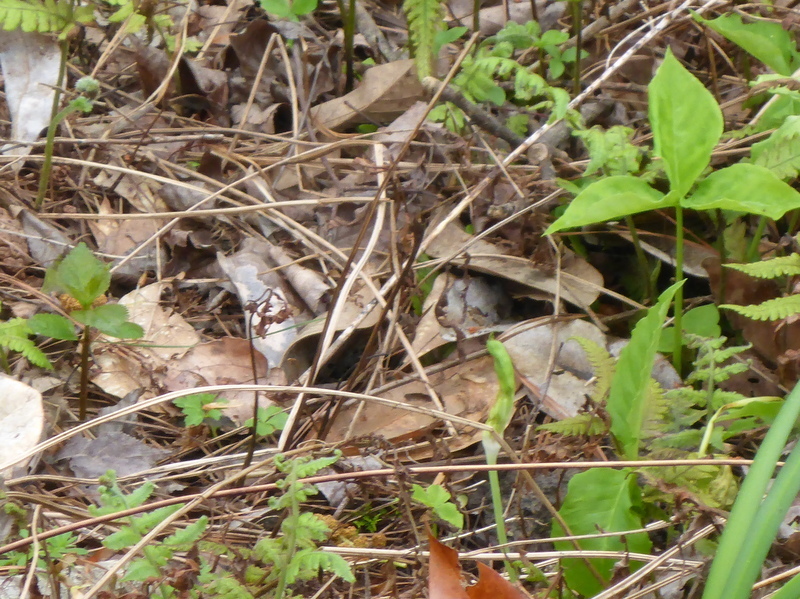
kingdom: Plantae
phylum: Tracheophyta
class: Liliopsida
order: Alismatales
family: Araceae
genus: Arisaema
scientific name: Arisaema
